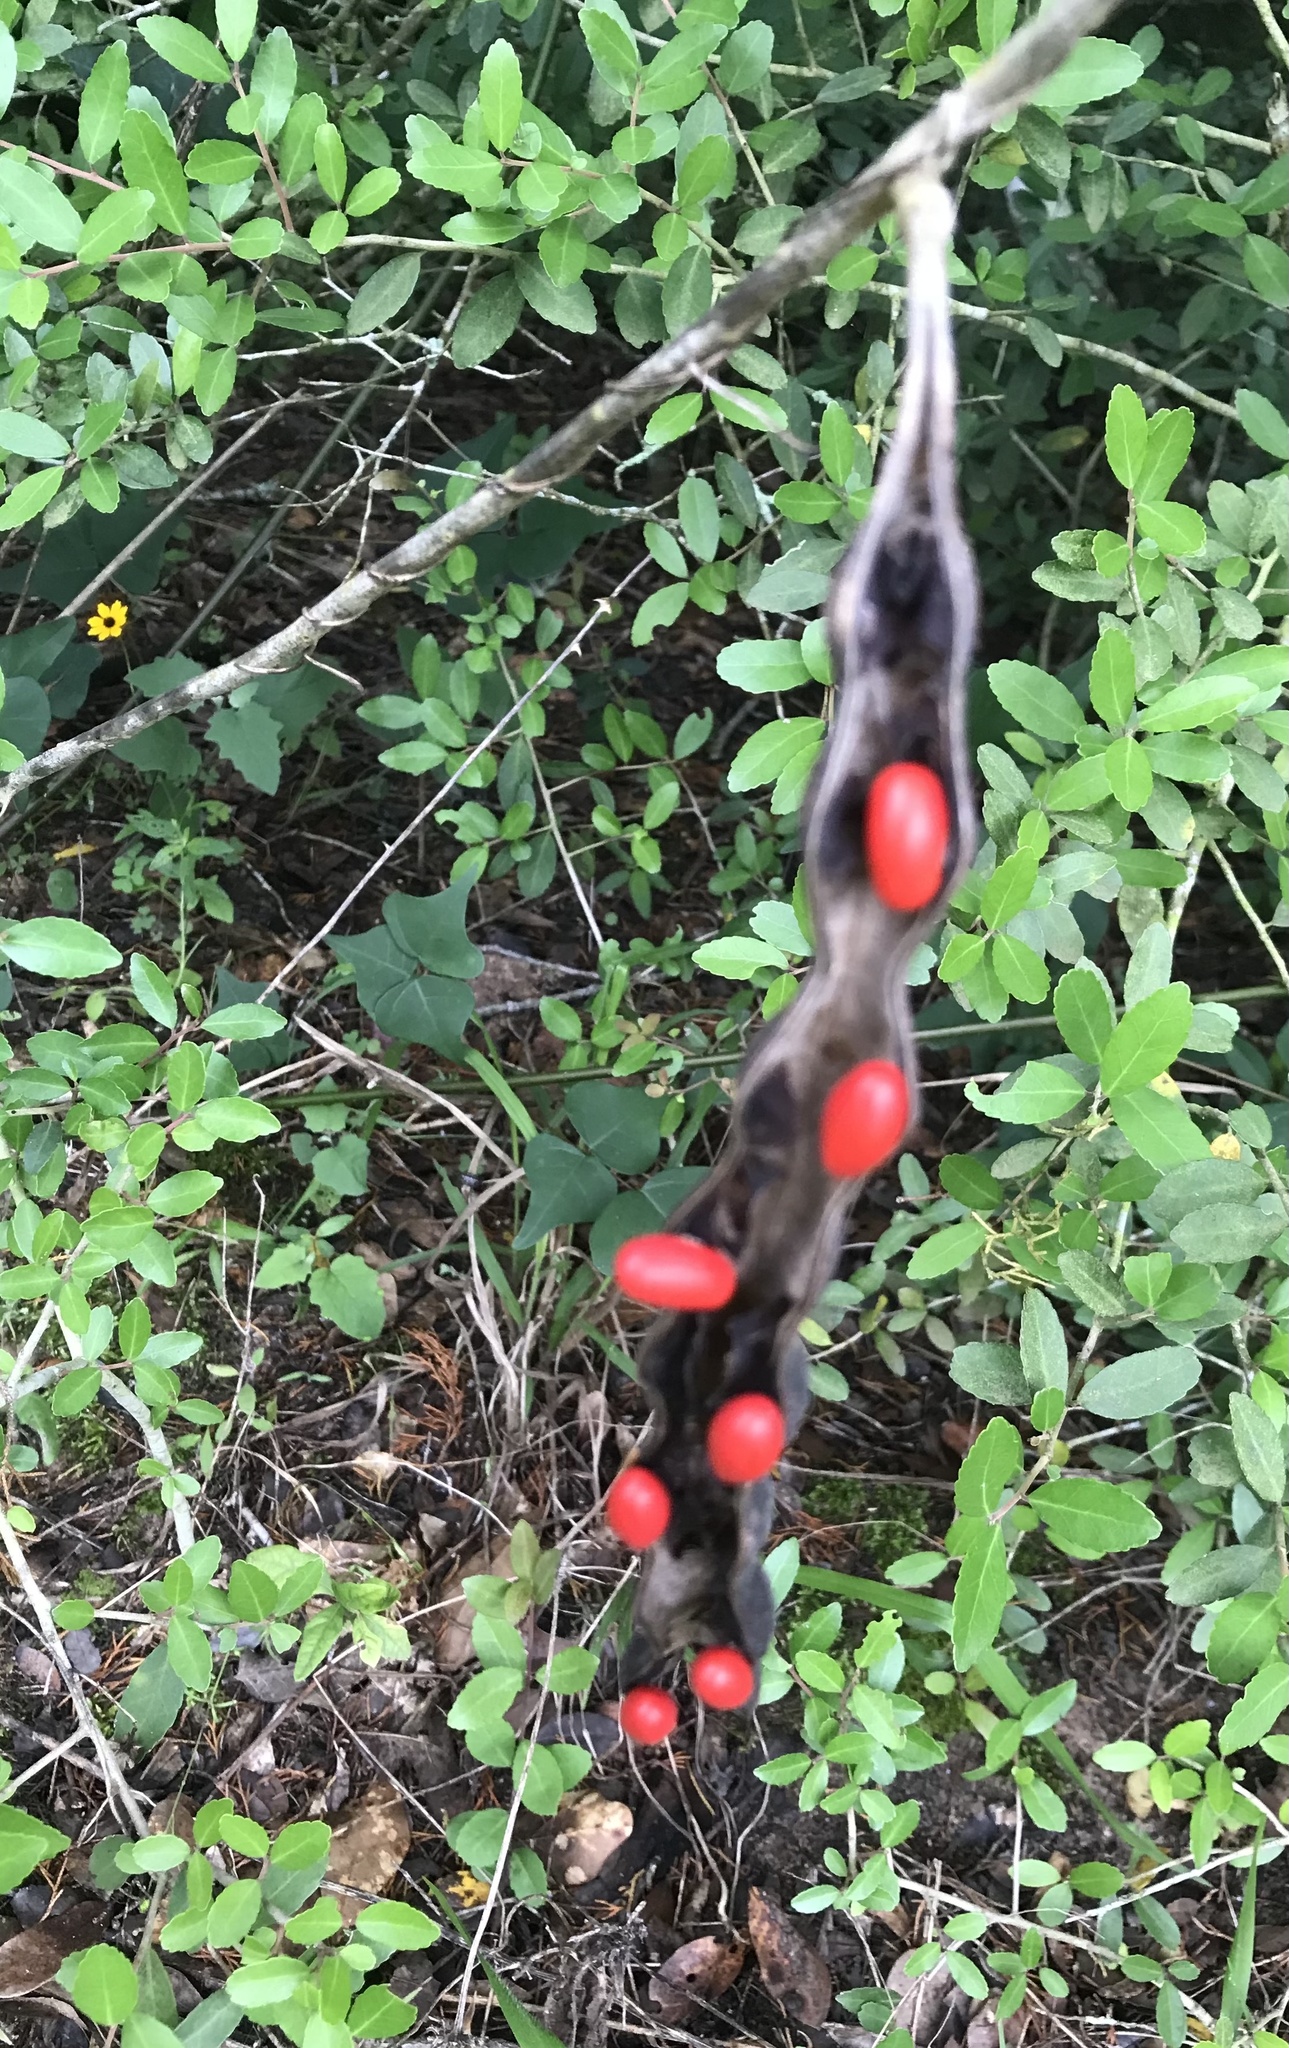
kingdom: Plantae
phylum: Tracheophyta
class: Magnoliopsida
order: Fabales
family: Fabaceae
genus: Erythrina
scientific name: Erythrina herbacea
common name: Coral-bean
